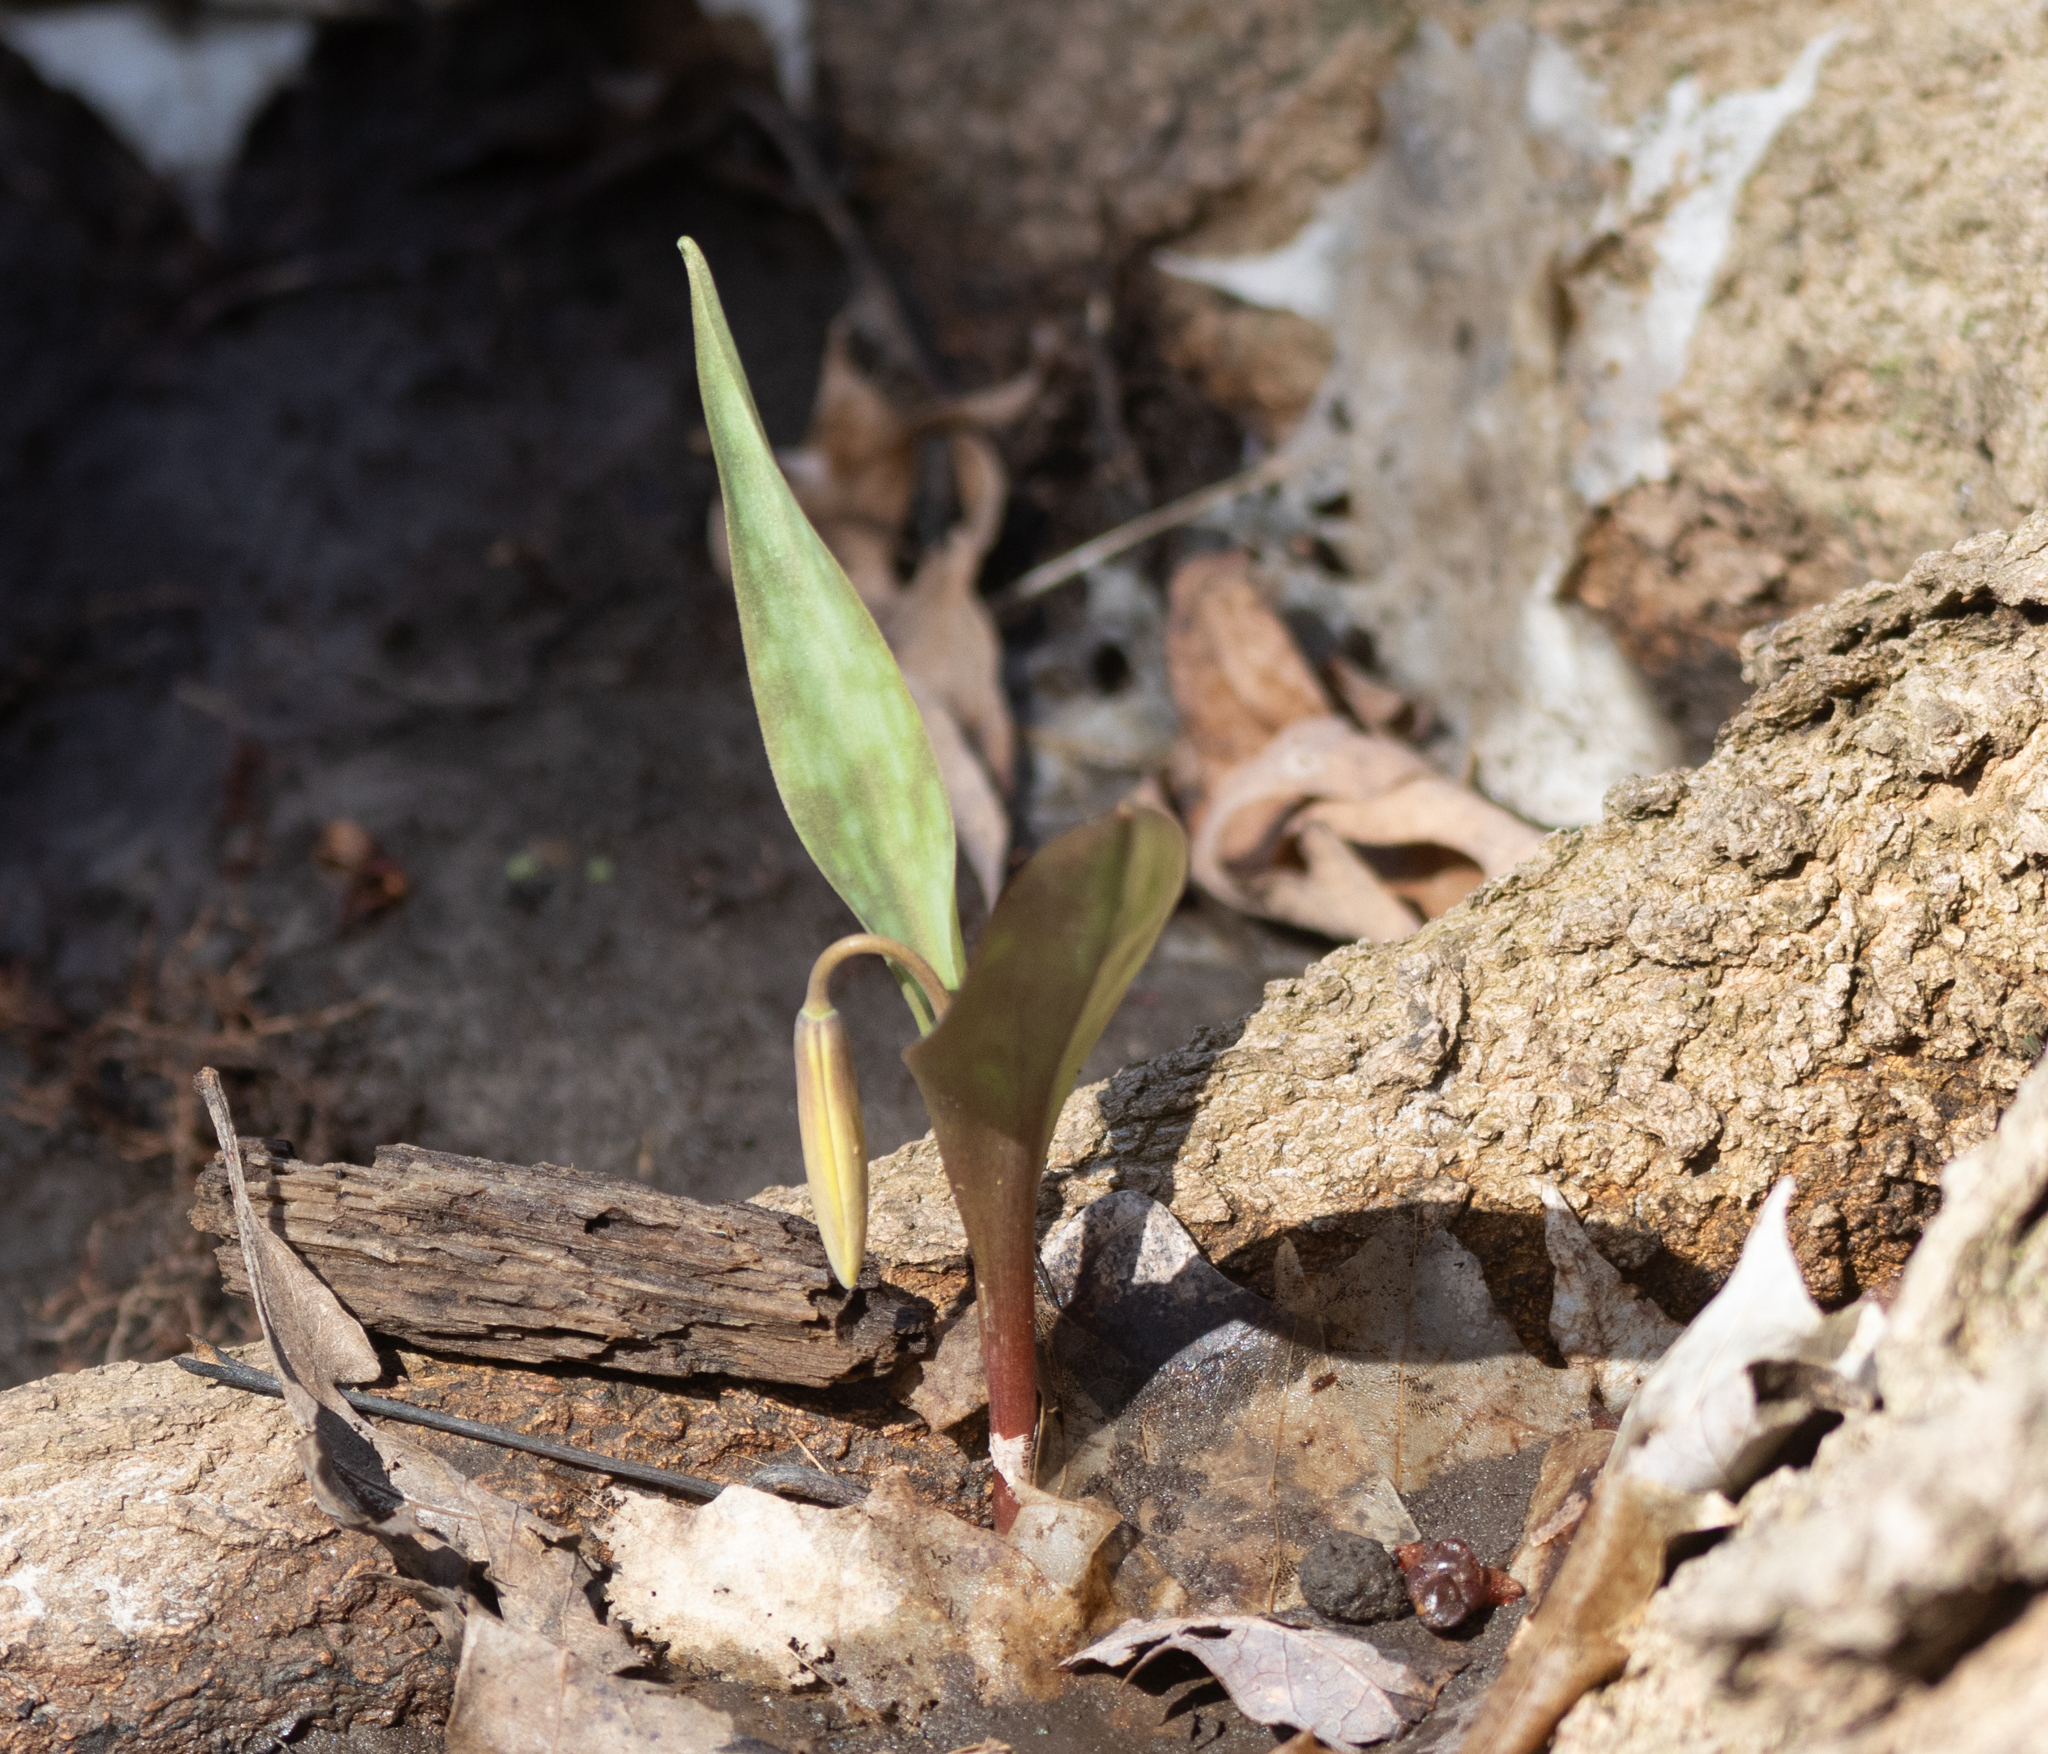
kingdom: Plantae
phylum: Tracheophyta
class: Liliopsida
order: Liliales
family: Liliaceae
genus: Erythronium
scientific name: Erythronium americanum
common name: Yellow adder's-tongue
